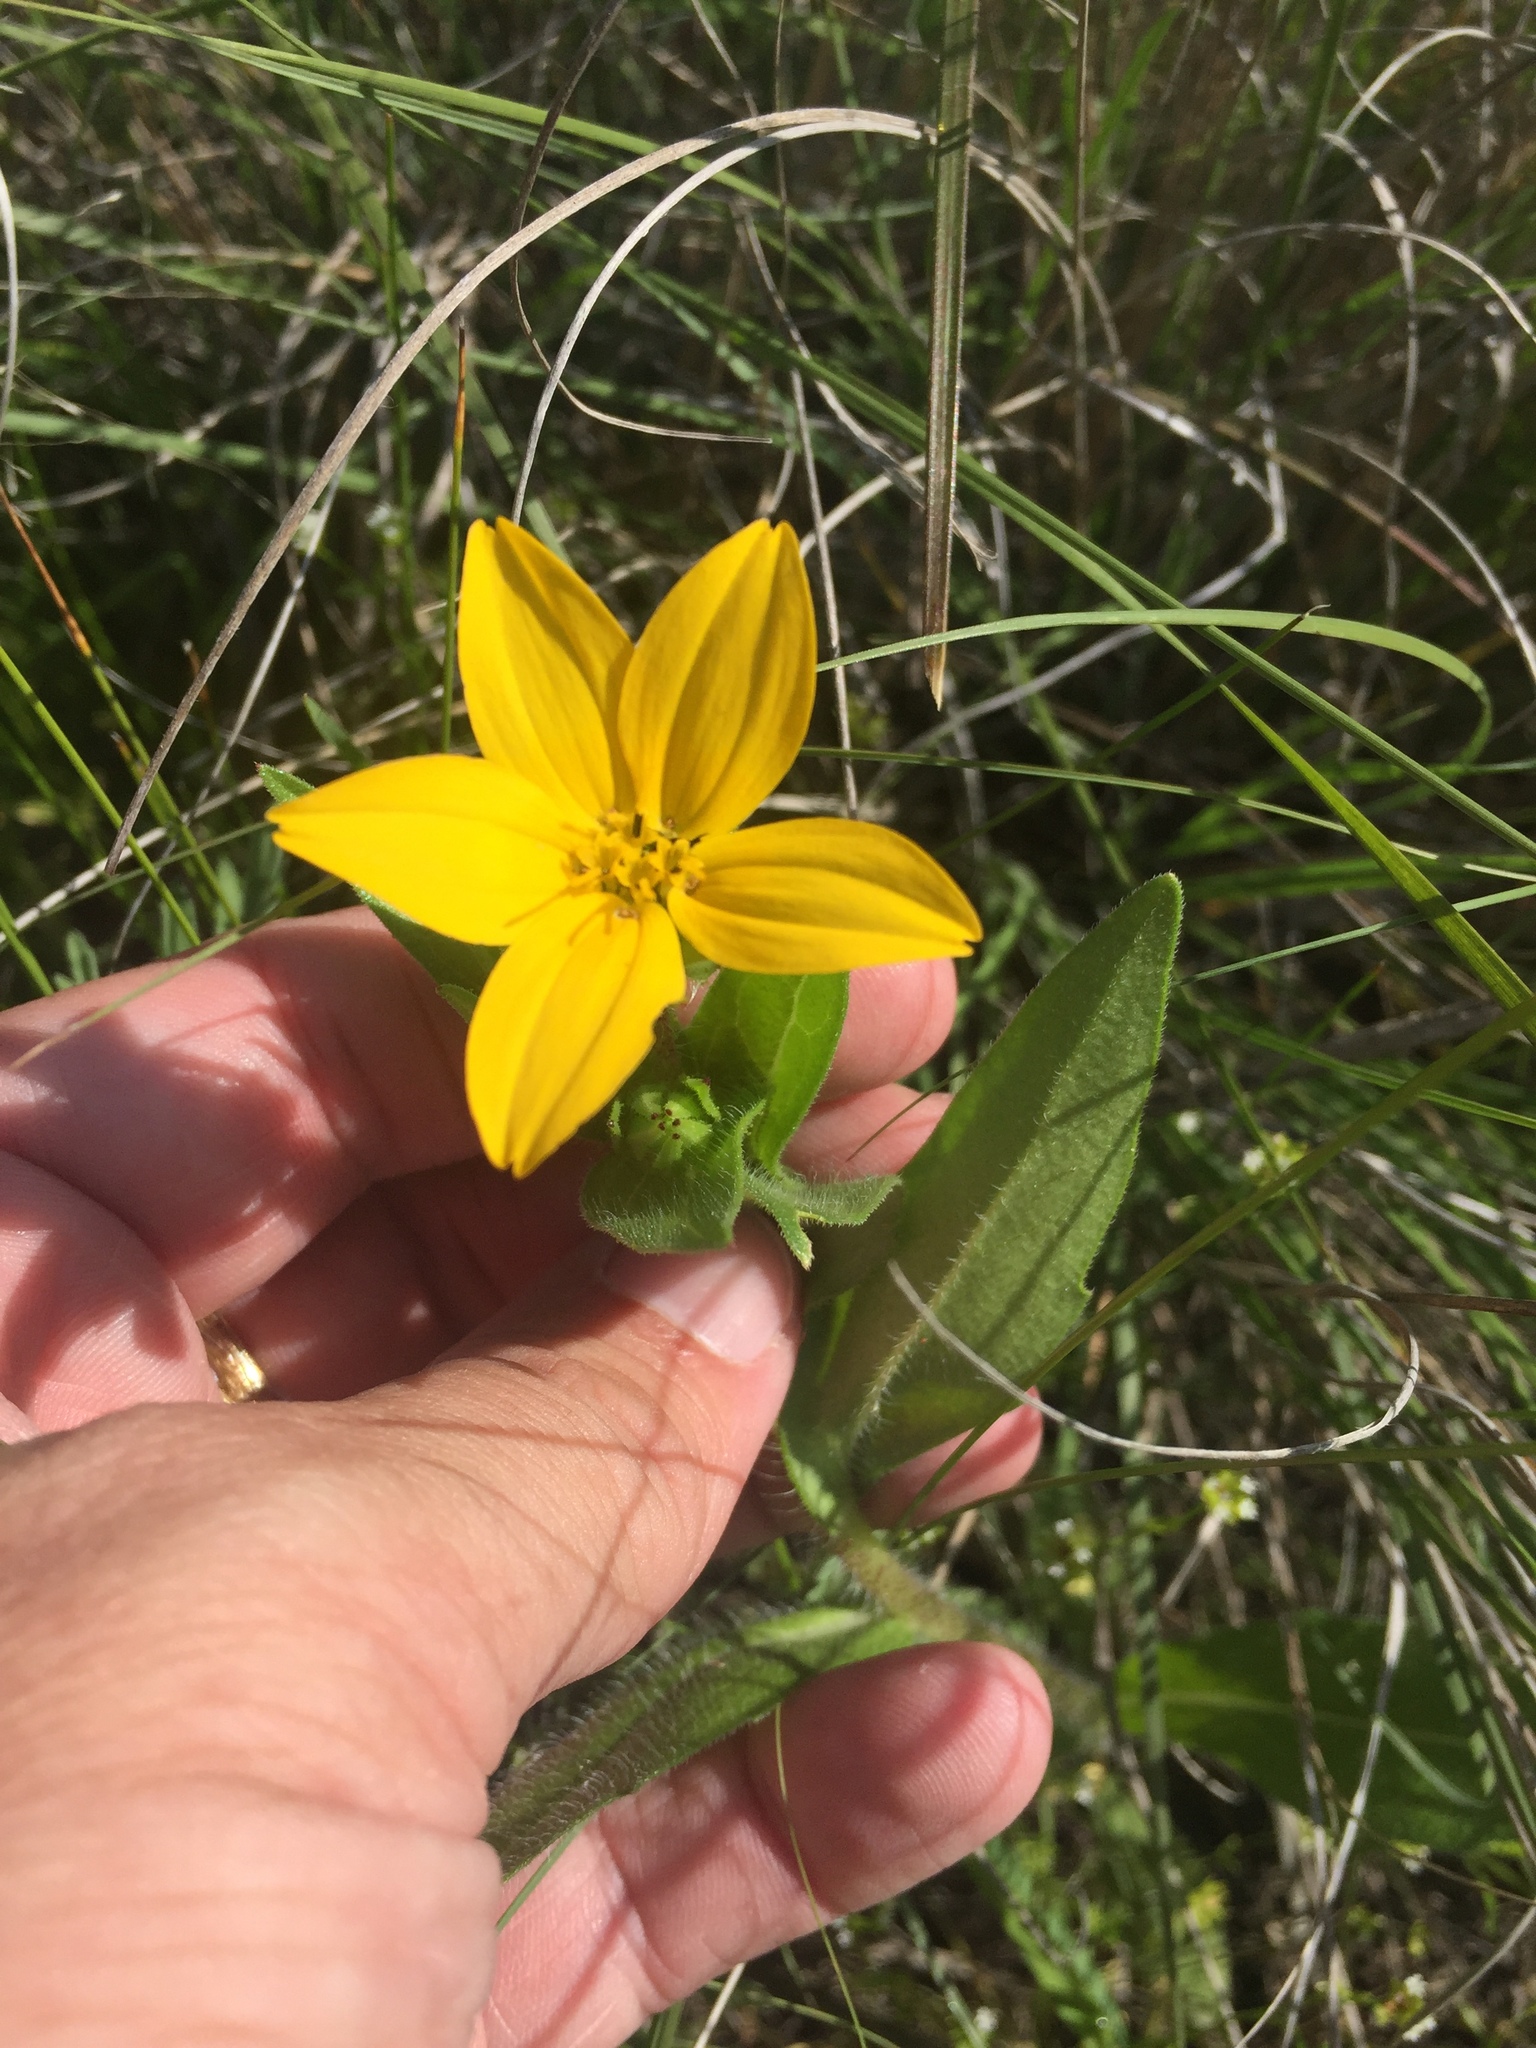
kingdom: Plantae
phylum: Tracheophyta
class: Magnoliopsida
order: Asterales
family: Asteraceae
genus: Lindheimera
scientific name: Lindheimera texana
